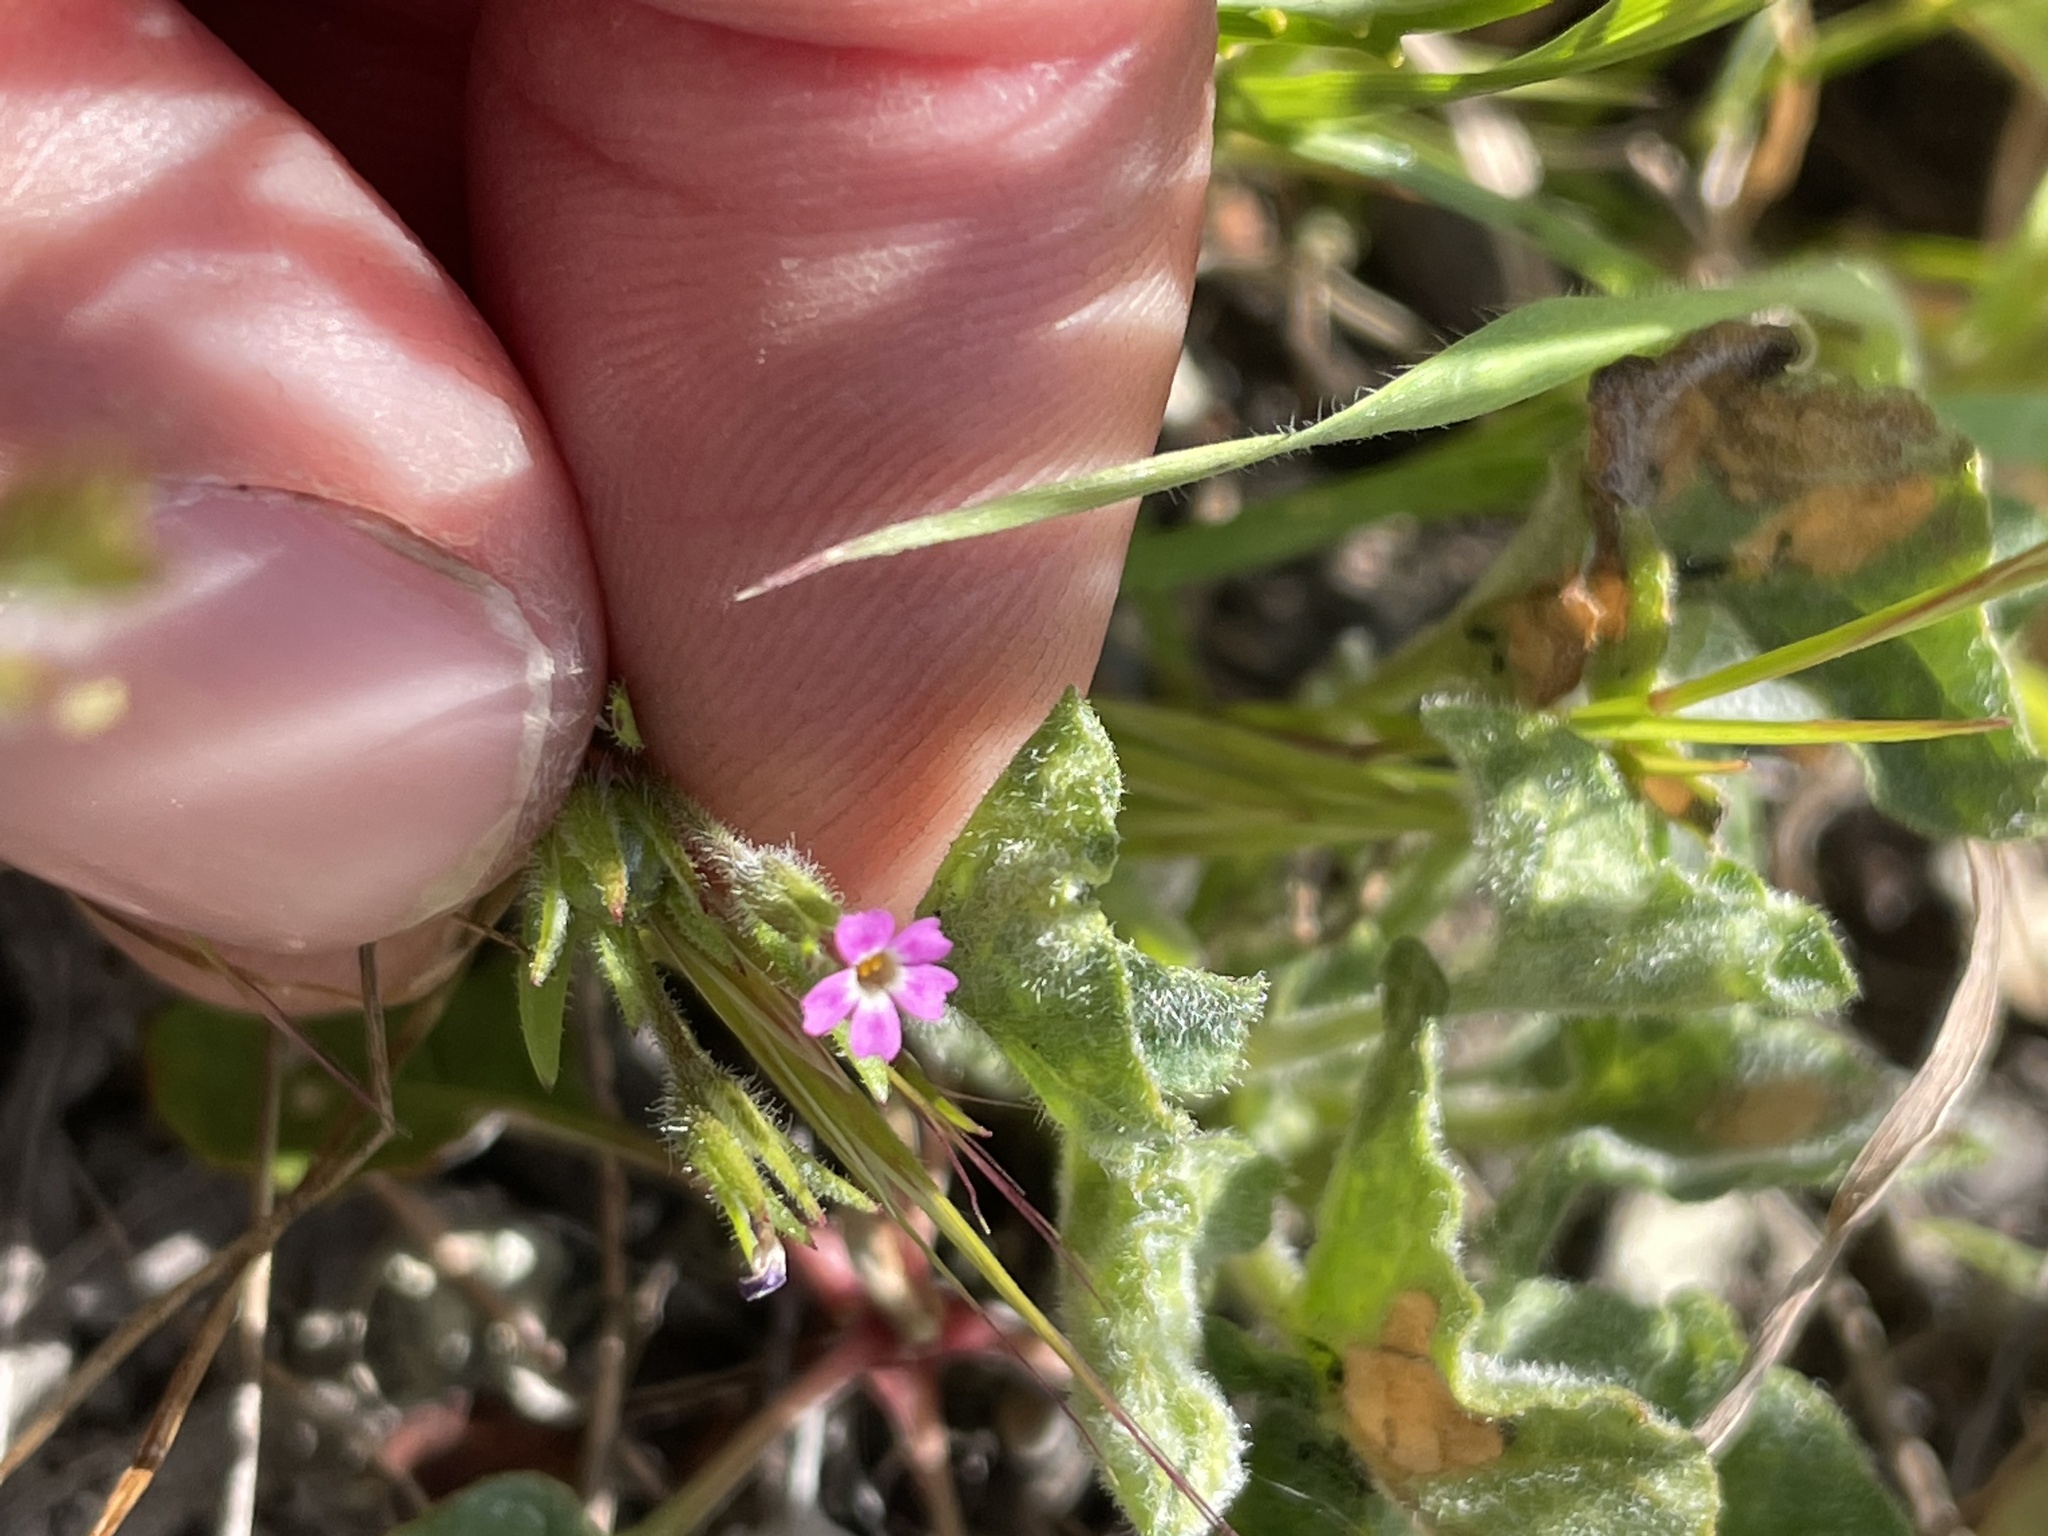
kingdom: Plantae
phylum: Tracheophyta
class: Magnoliopsida
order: Ericales
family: Polemoniaceae
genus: Phlox
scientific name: Phlox gracilis
